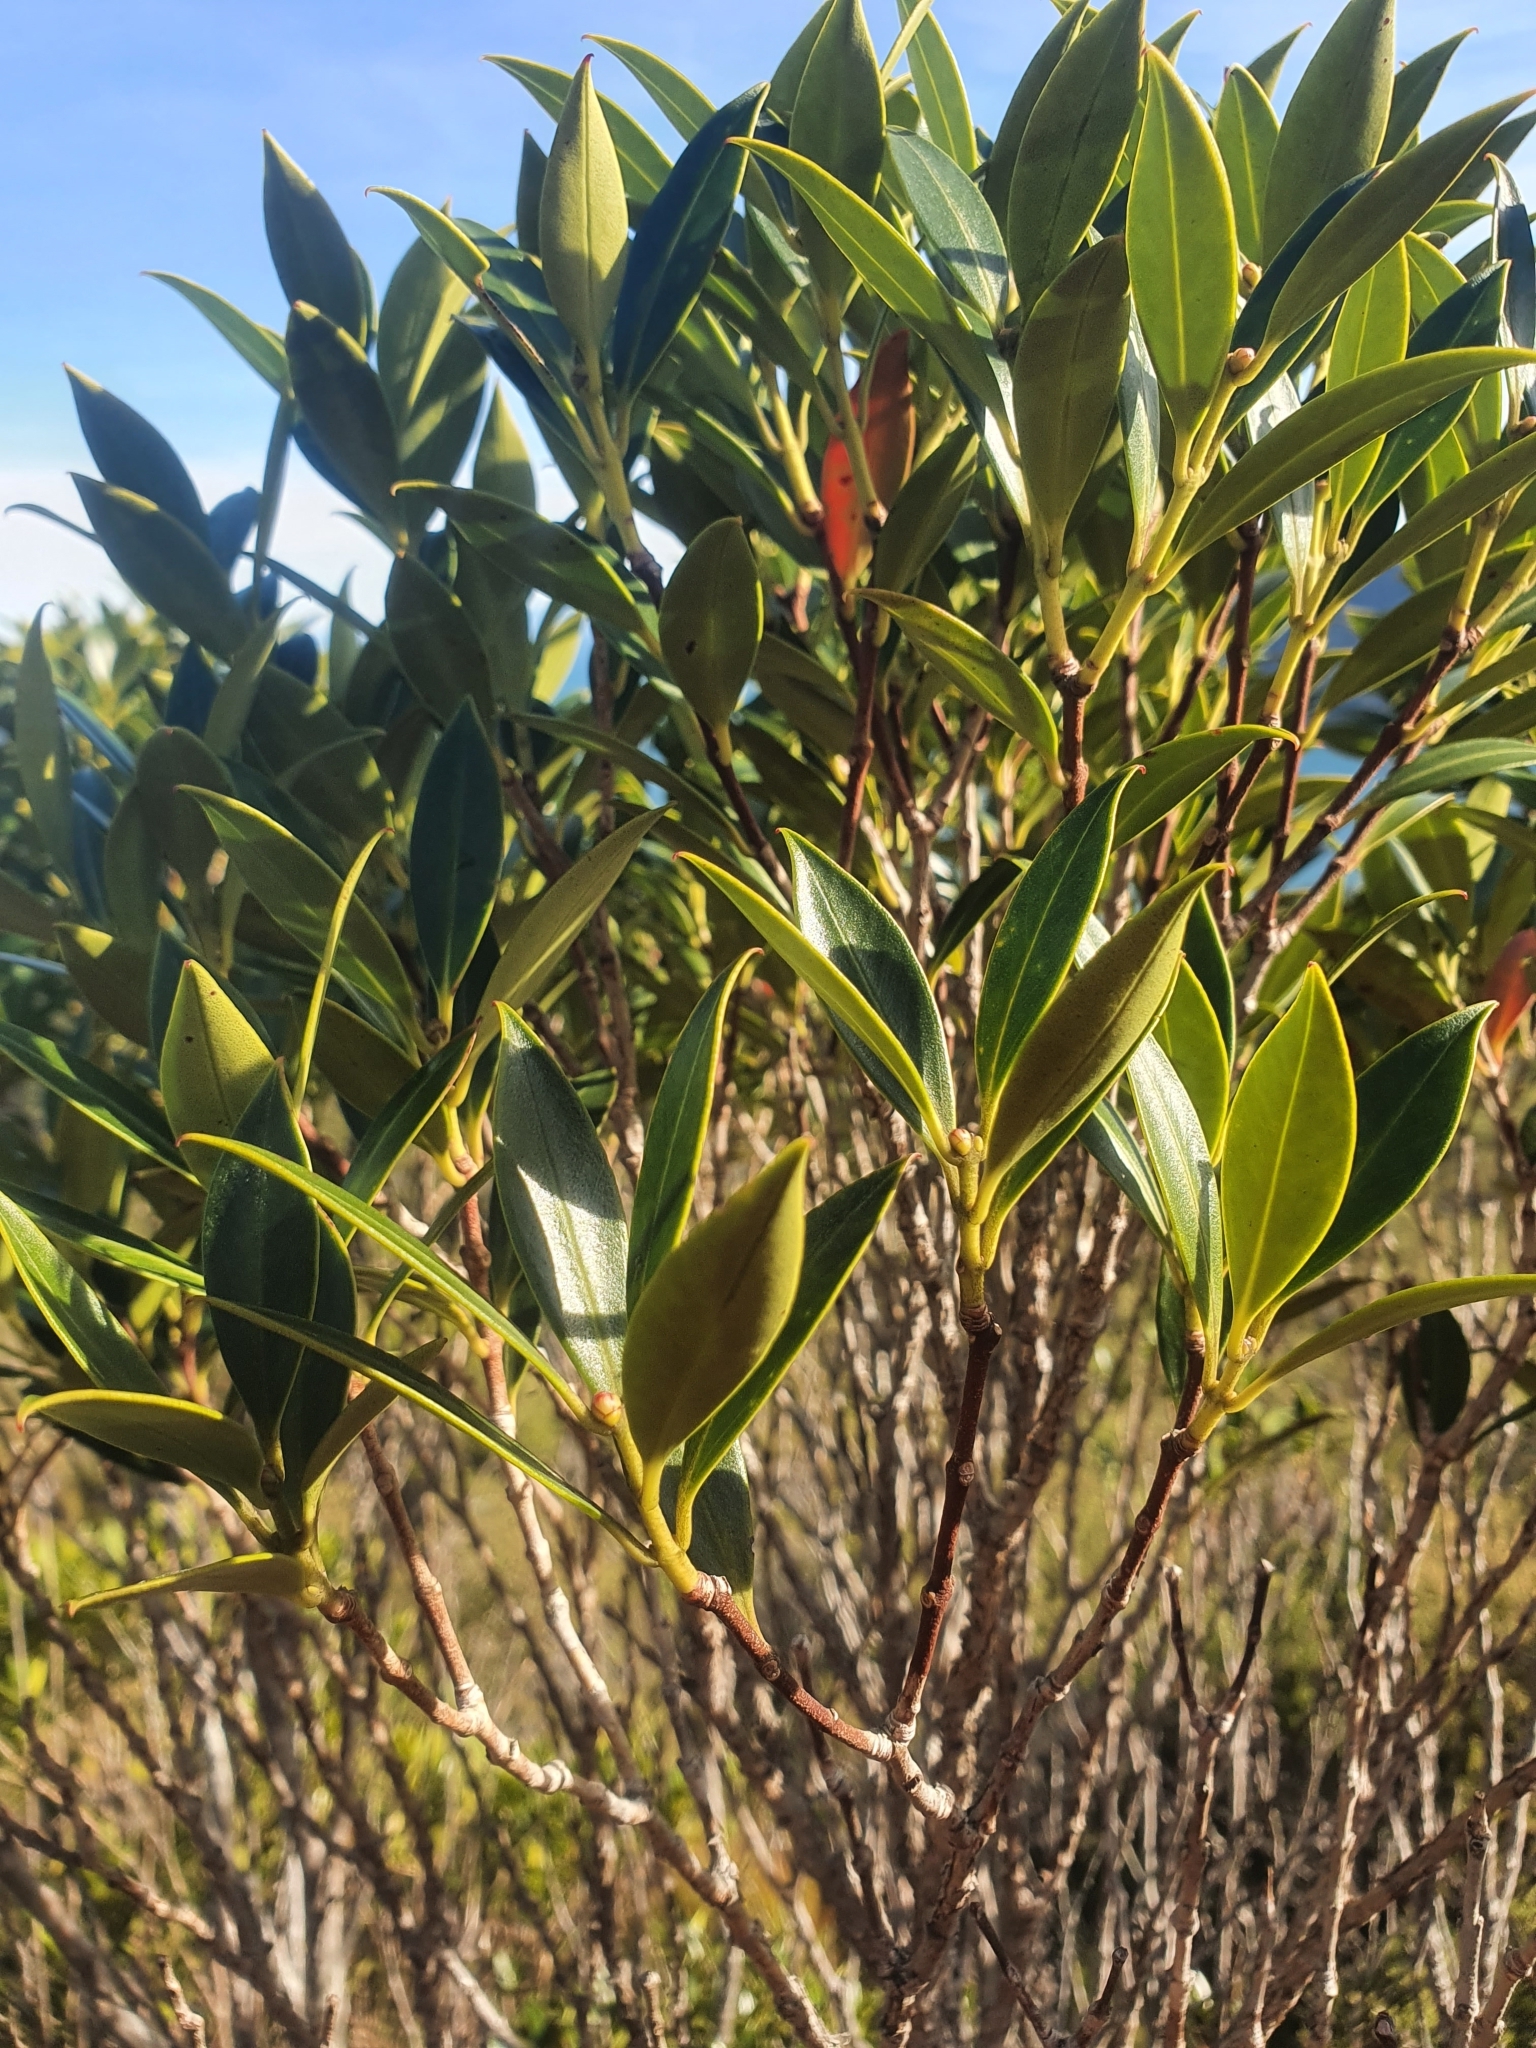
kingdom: Plantae
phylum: Tracheophyta
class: Magnoliopsida
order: Myrtales
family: Myrtaceae
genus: Metrosideros
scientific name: Metrosideros umbellata
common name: Southern rata
